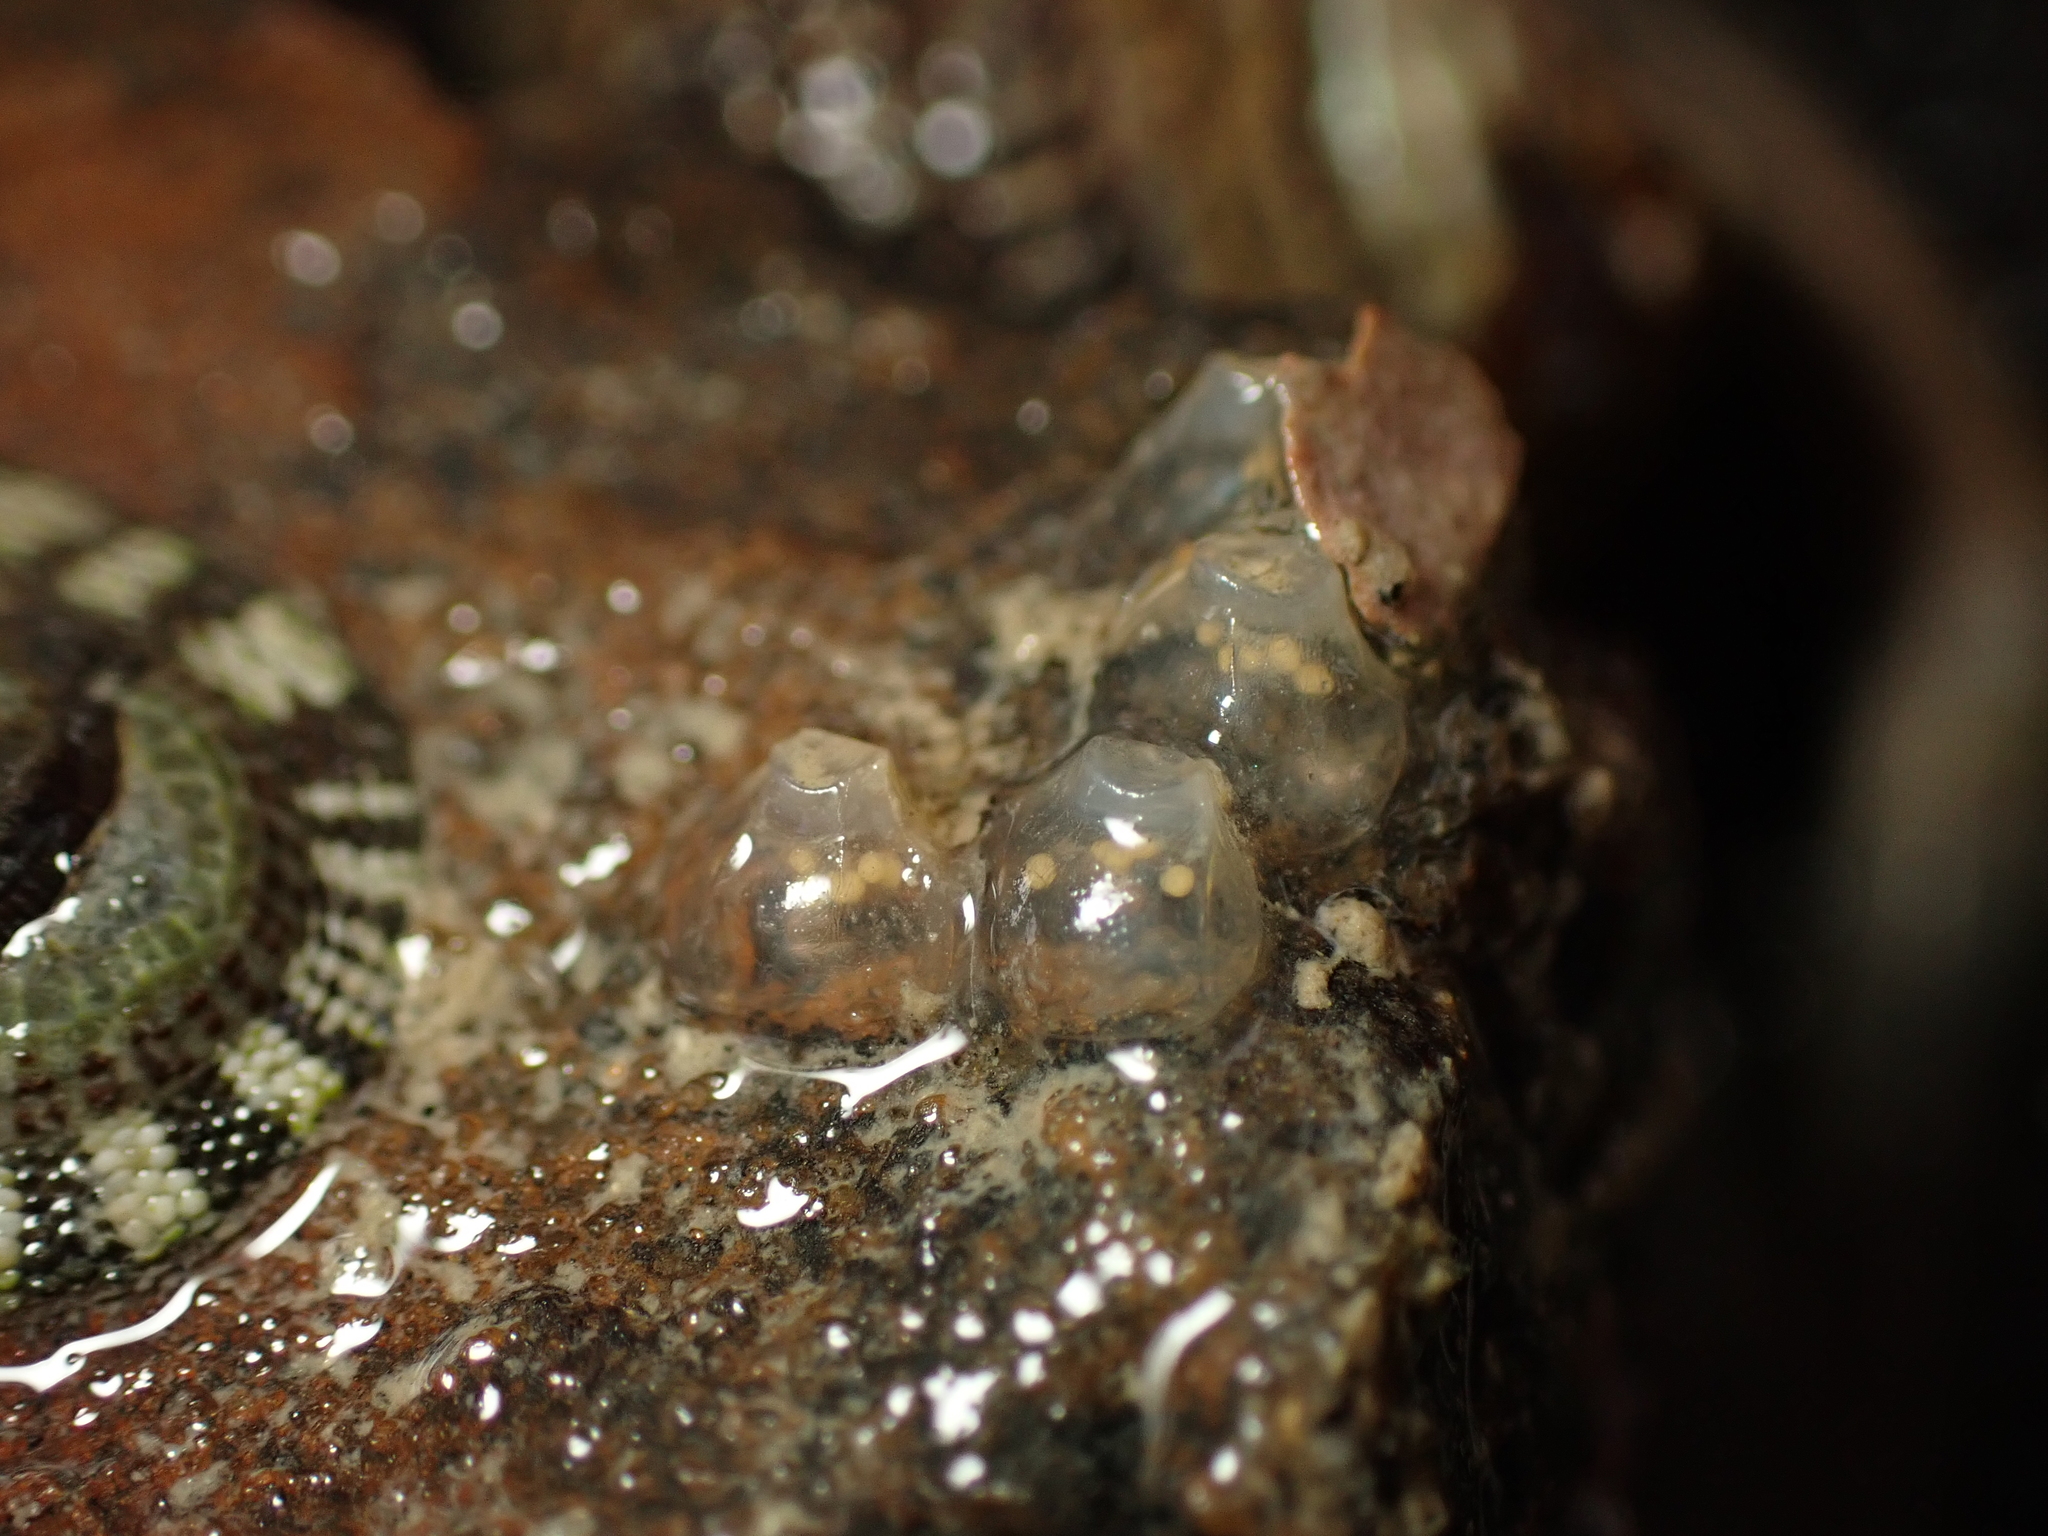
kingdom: Animalia
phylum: Mollusca
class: Gastropoda
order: Neogastropoda
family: Cominellidae
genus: Cominella
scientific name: Cominella glandiformis
